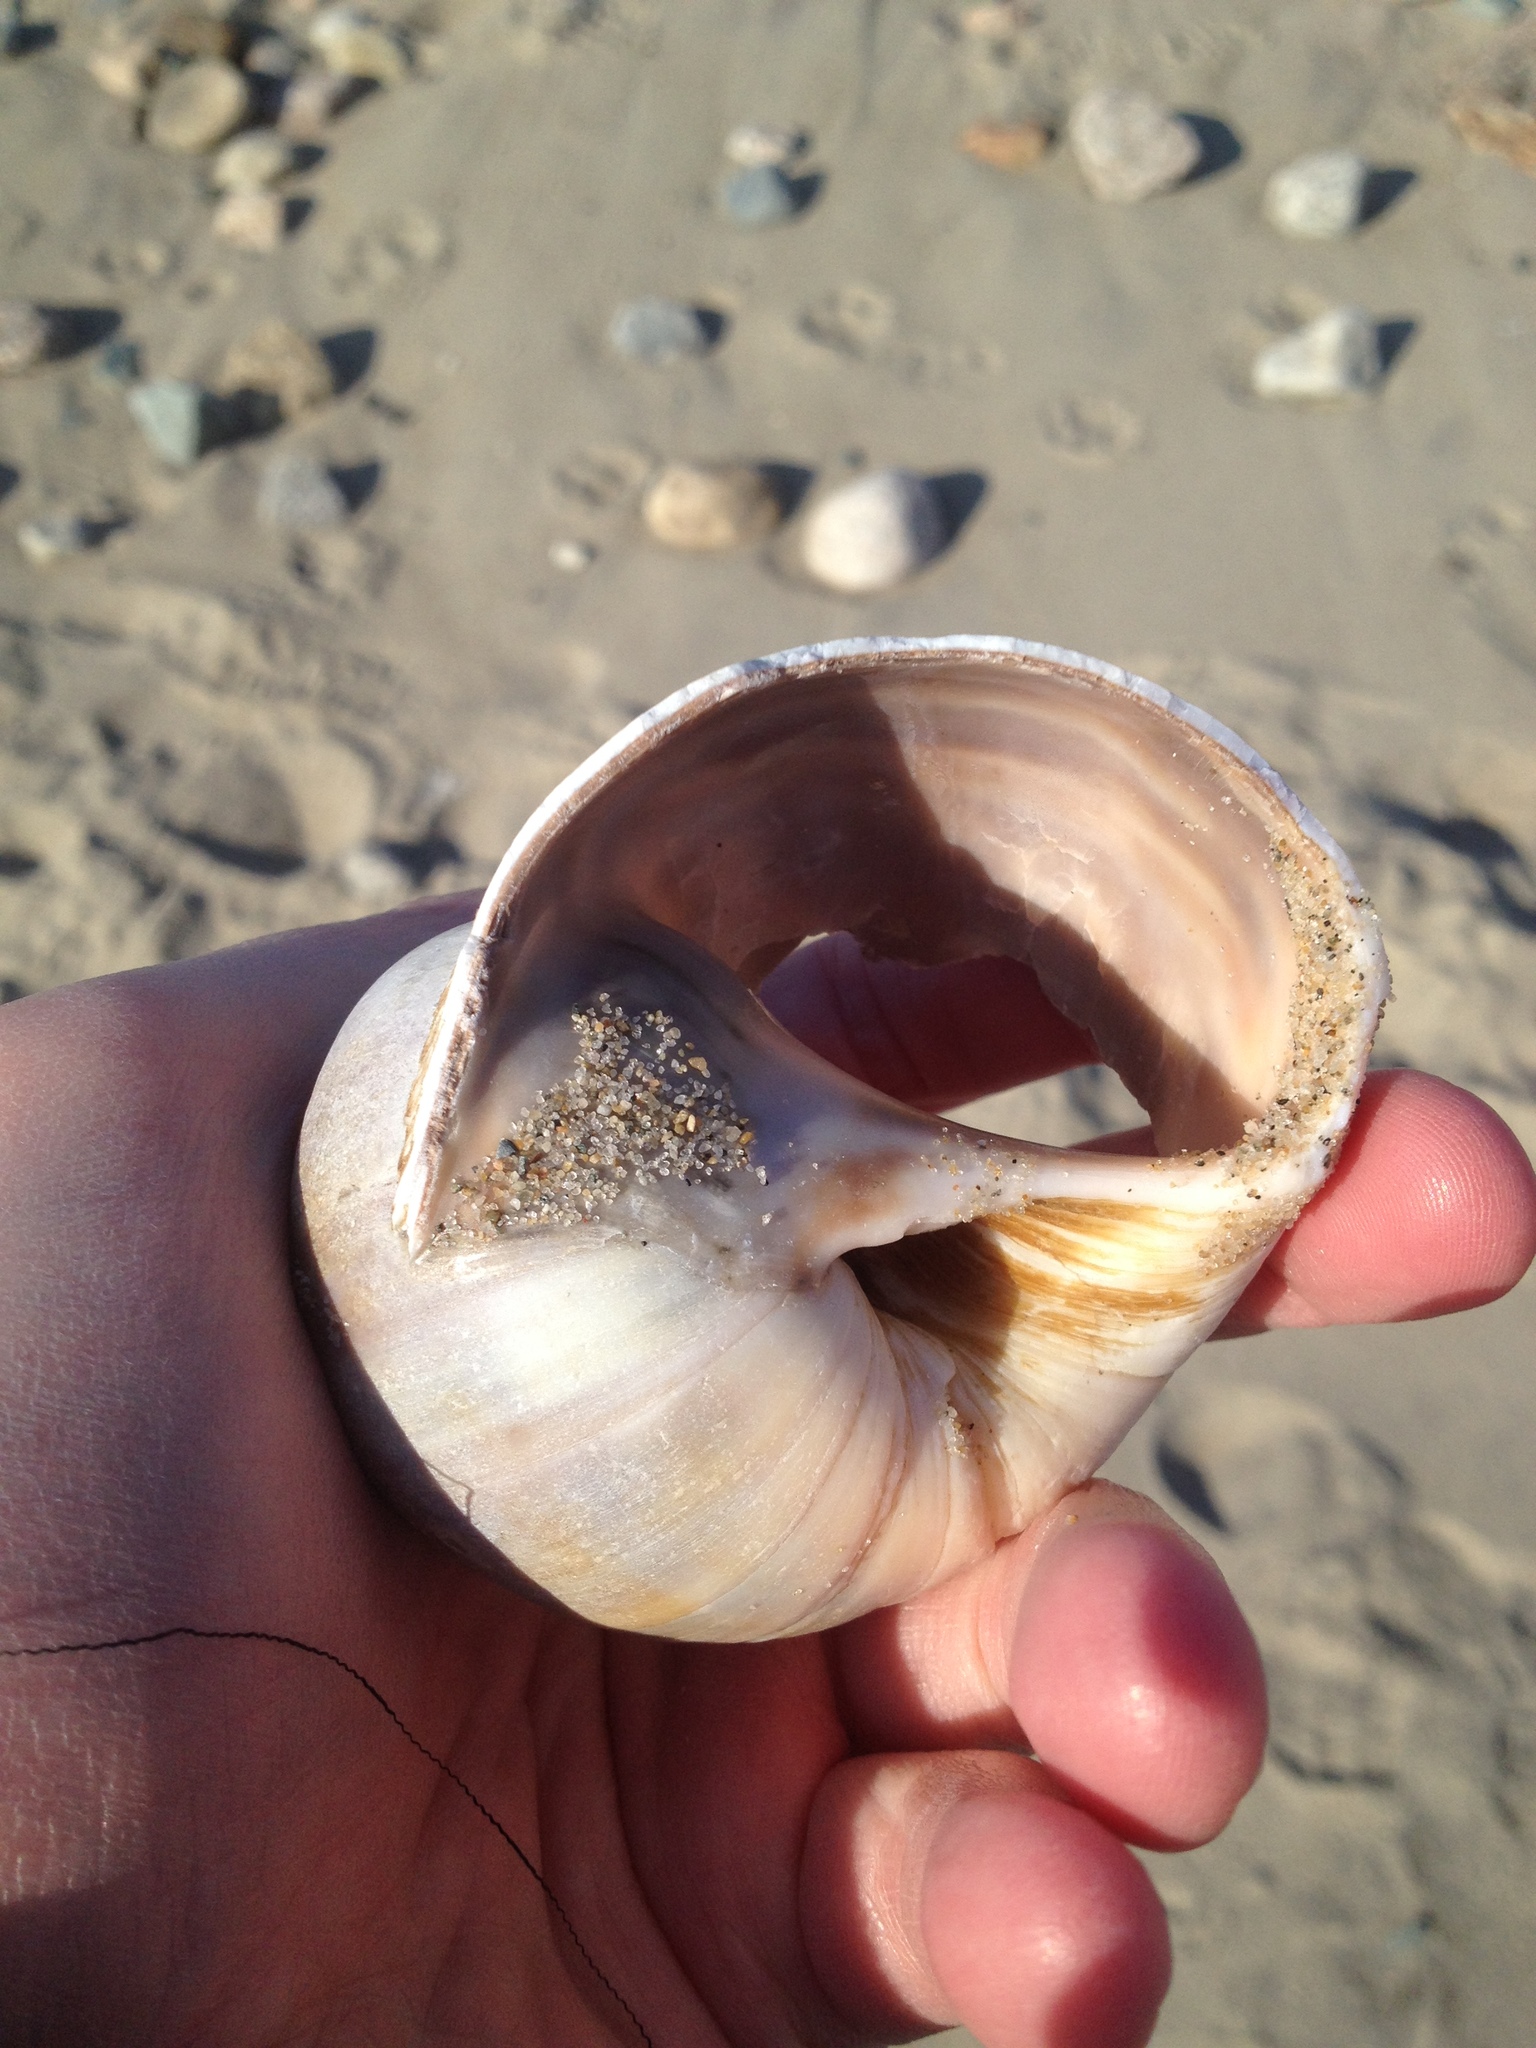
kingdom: Animalia
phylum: Mollusca
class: Gastropoda
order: Littorinimorpha
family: Naticidae
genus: Euspira
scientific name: Euspira heros
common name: Common northern moonsnail
